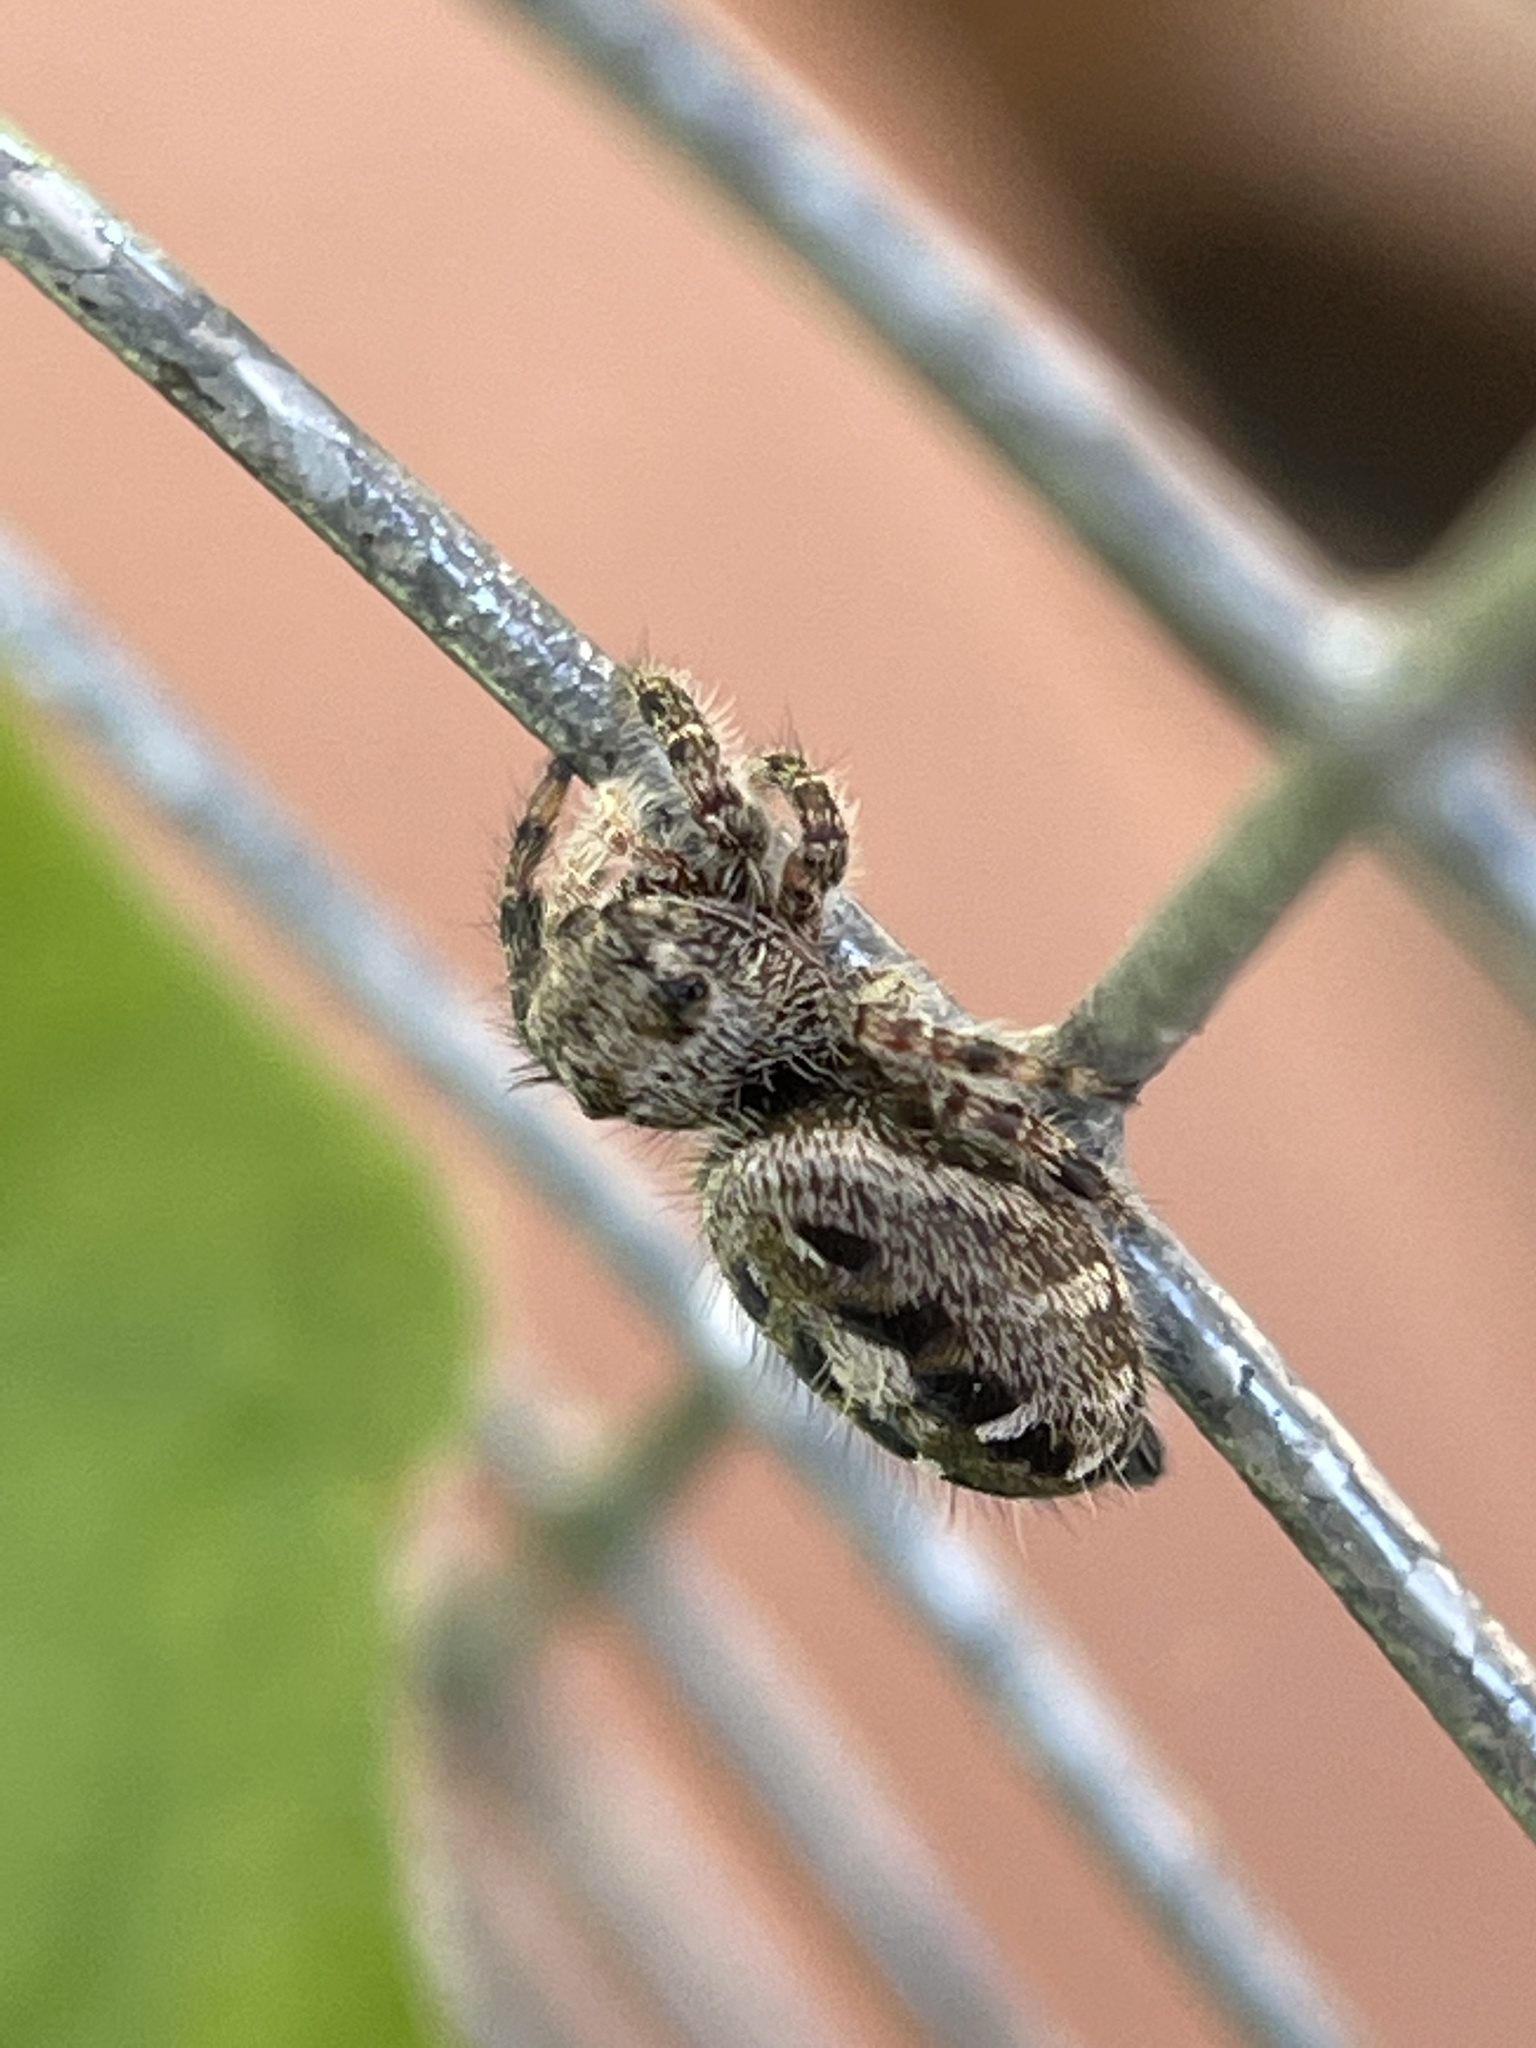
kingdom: Animalia
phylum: Arthropoda
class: Arachnida
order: Araneae
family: Salticidae
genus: Phidippus
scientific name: Phidippus putnami
